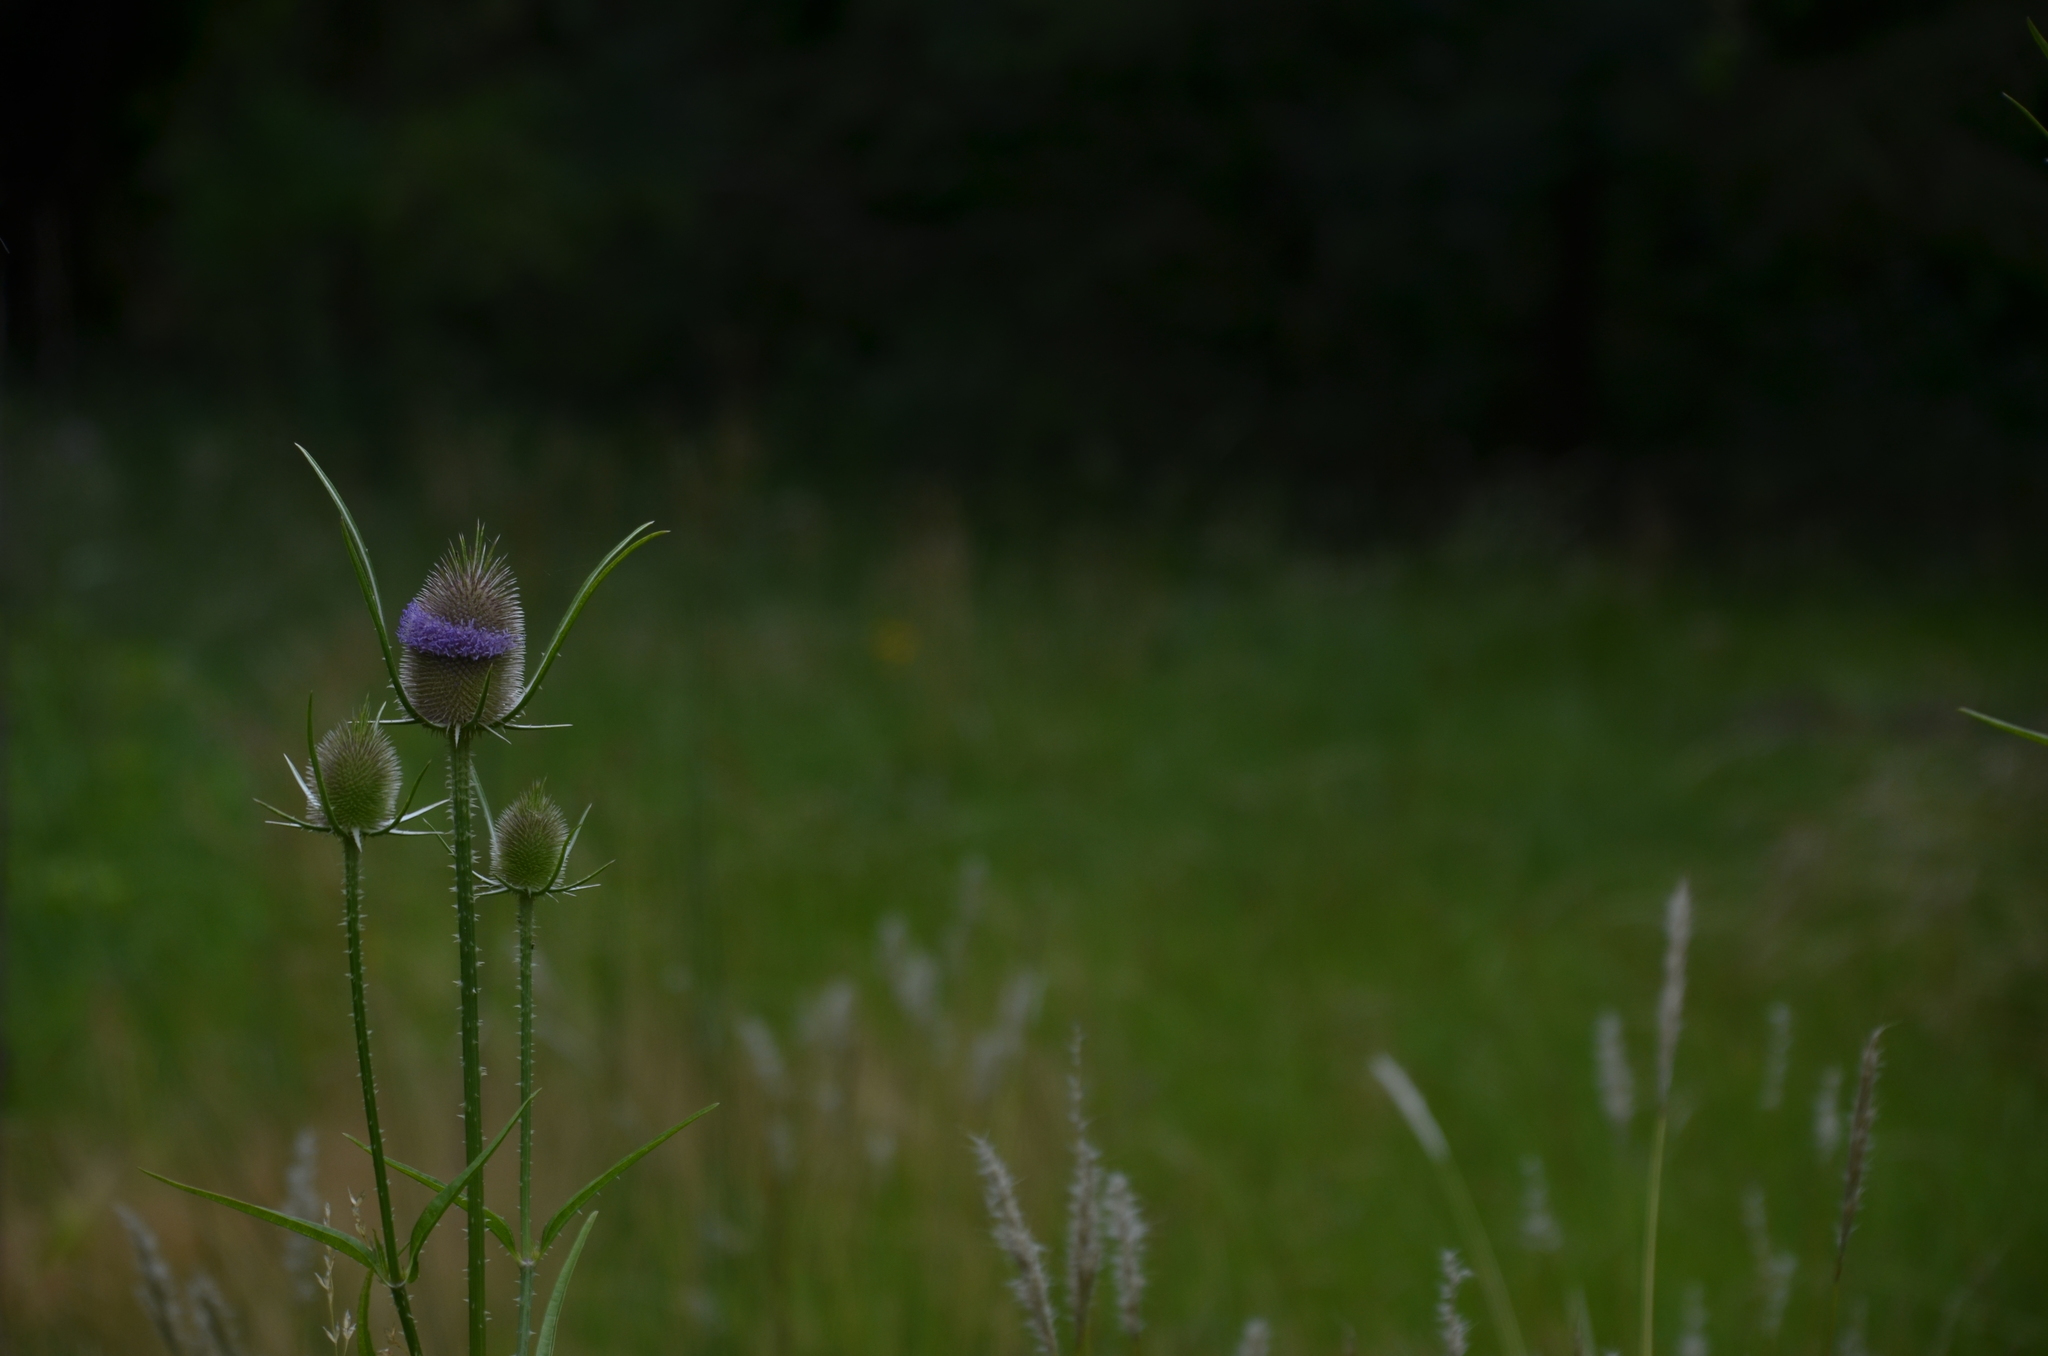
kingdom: Plantae
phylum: Tracheophyta
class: Magnoliopsida
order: Dipsacales
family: Caprifoliaceae
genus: Dipsacus
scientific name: Dipsacus fullonum
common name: Teasel
